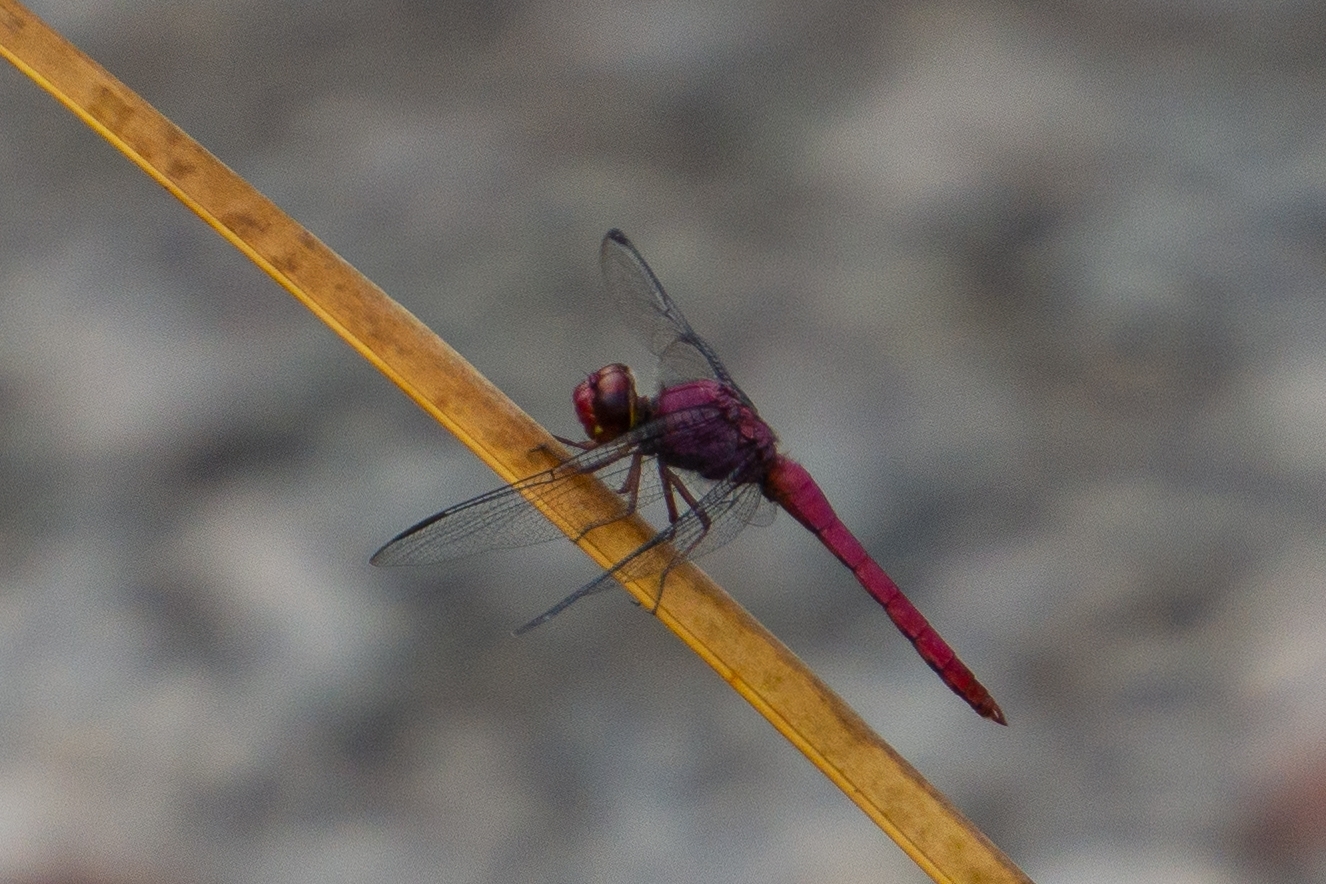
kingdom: Animalia
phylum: Arthropoda
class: Insecta
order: Odonata
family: Libellulidae
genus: Orthemis
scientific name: Orthemis discolor
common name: Carmine skimmer
